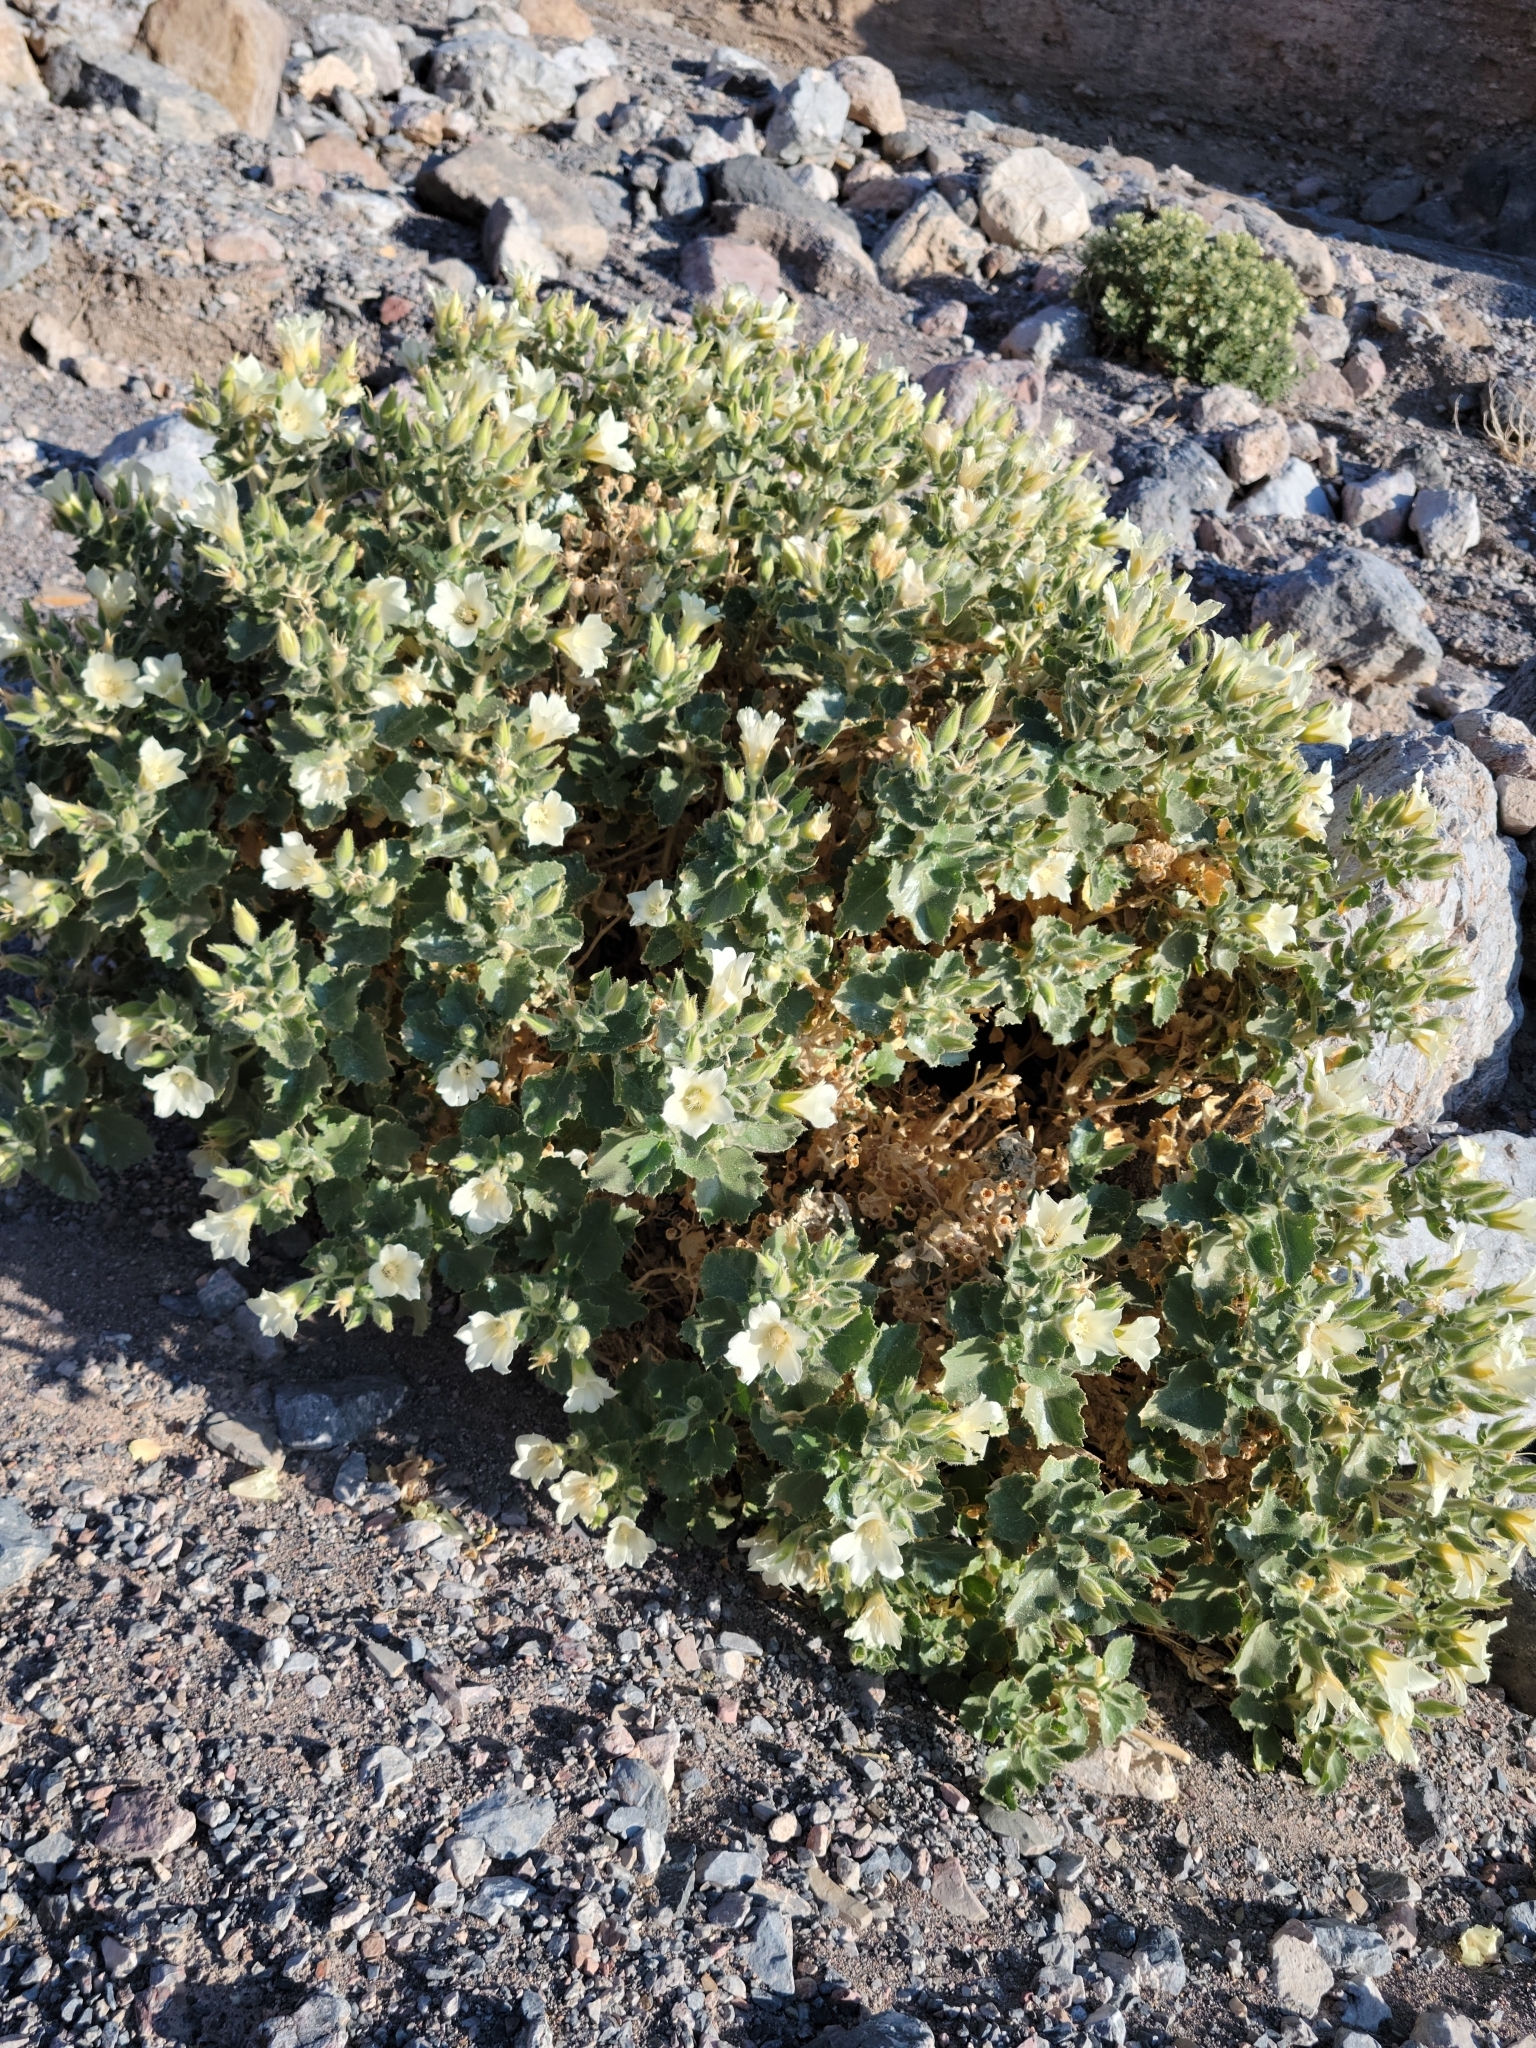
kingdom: Plantae
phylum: Tracheophyta
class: Magnoliopsida
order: Cornales
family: Loasaceae
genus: Eucnide
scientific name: Eucnide urens
